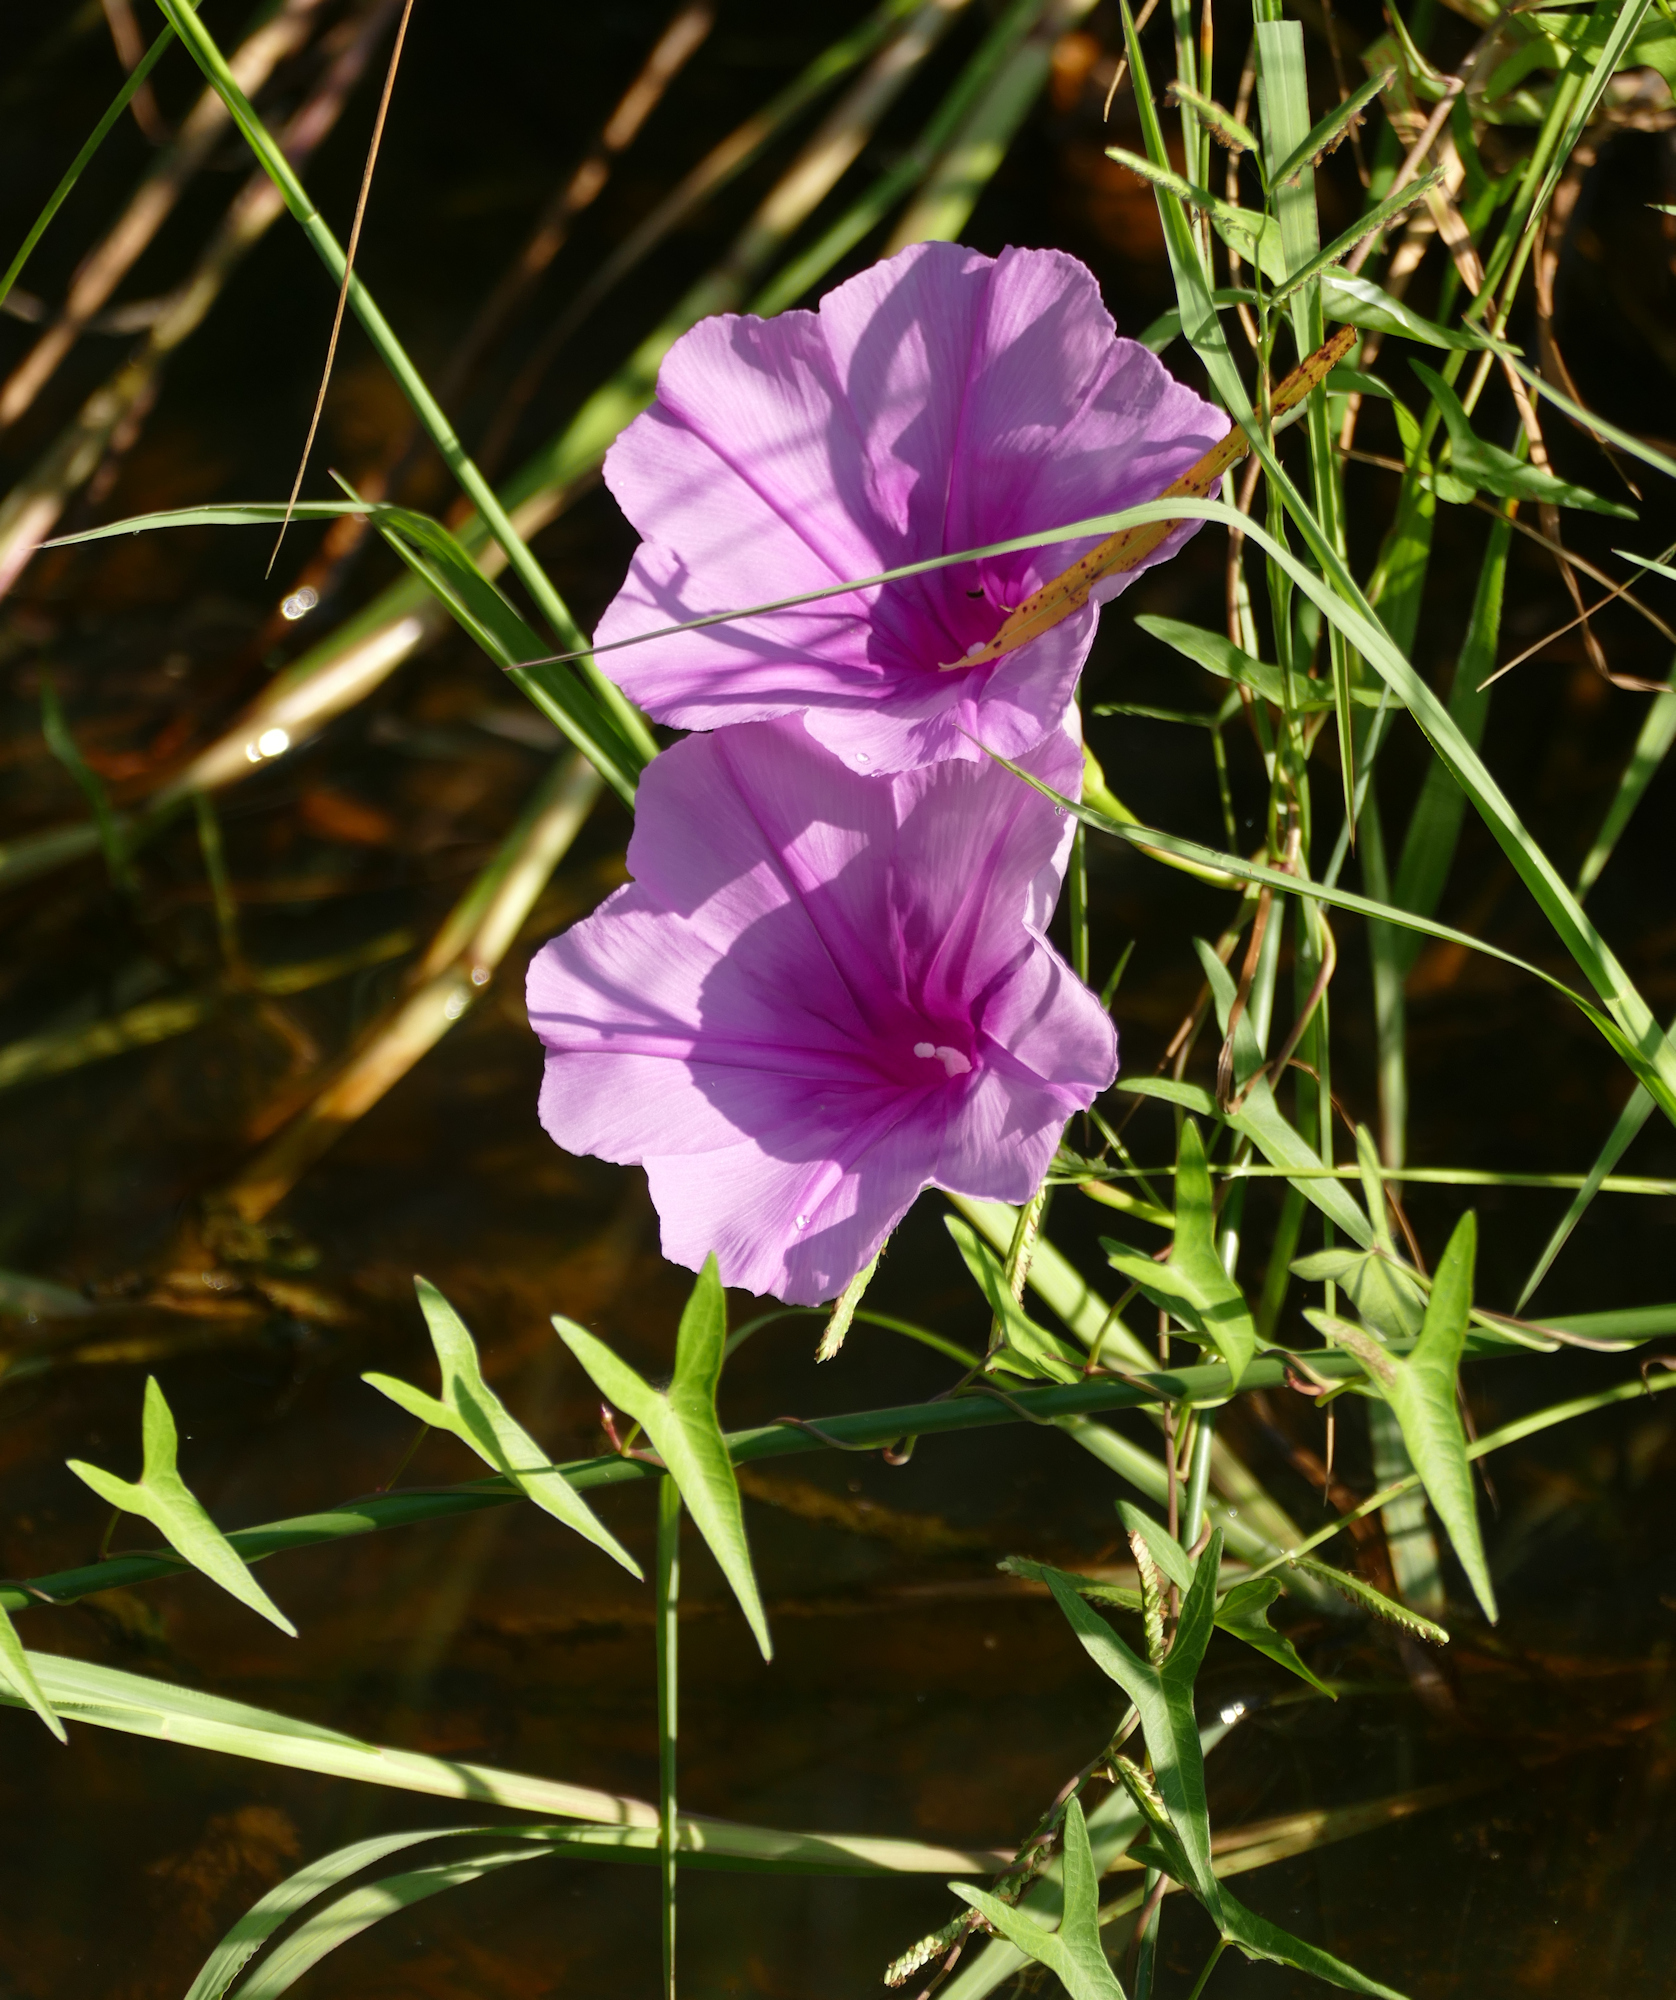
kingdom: Plantae
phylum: Tracheophyta
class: Magnoliopsida
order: Solanales
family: Convolvulaceae
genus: Ipomoea
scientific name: Ipomoea sagittata
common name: Saltmarsh morning glory
